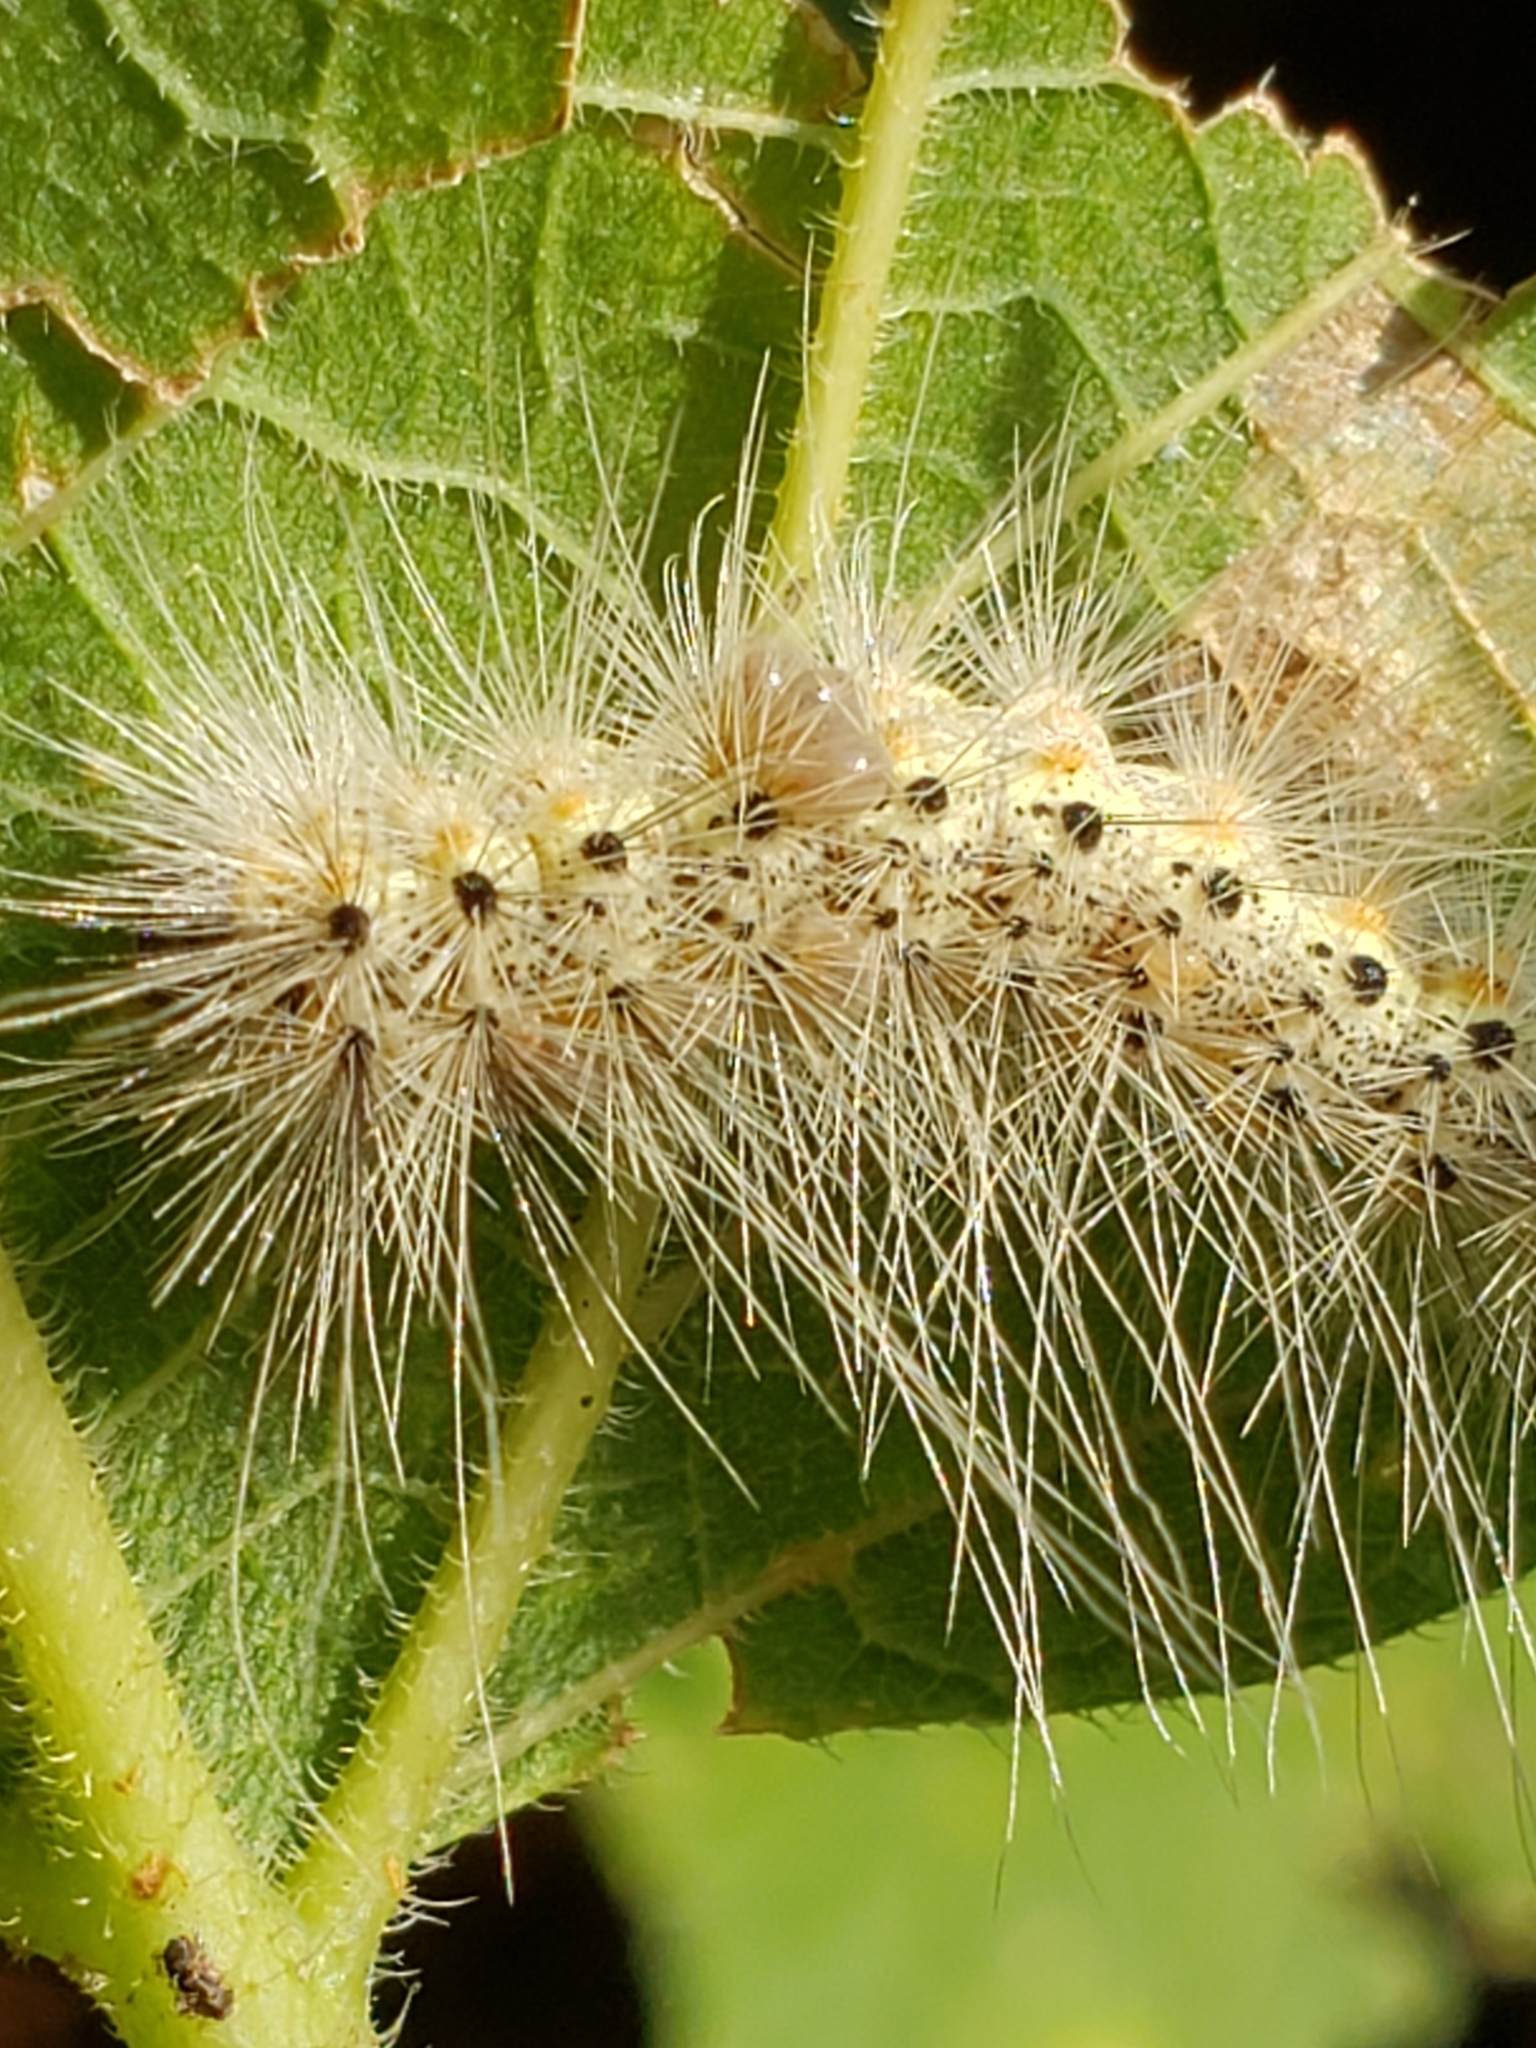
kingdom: Animalia
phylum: Arthropoda
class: Insecta
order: Lepidoptera
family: Erebidae
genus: Hyphantria
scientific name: Hyphantria cunea
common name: American white moth
